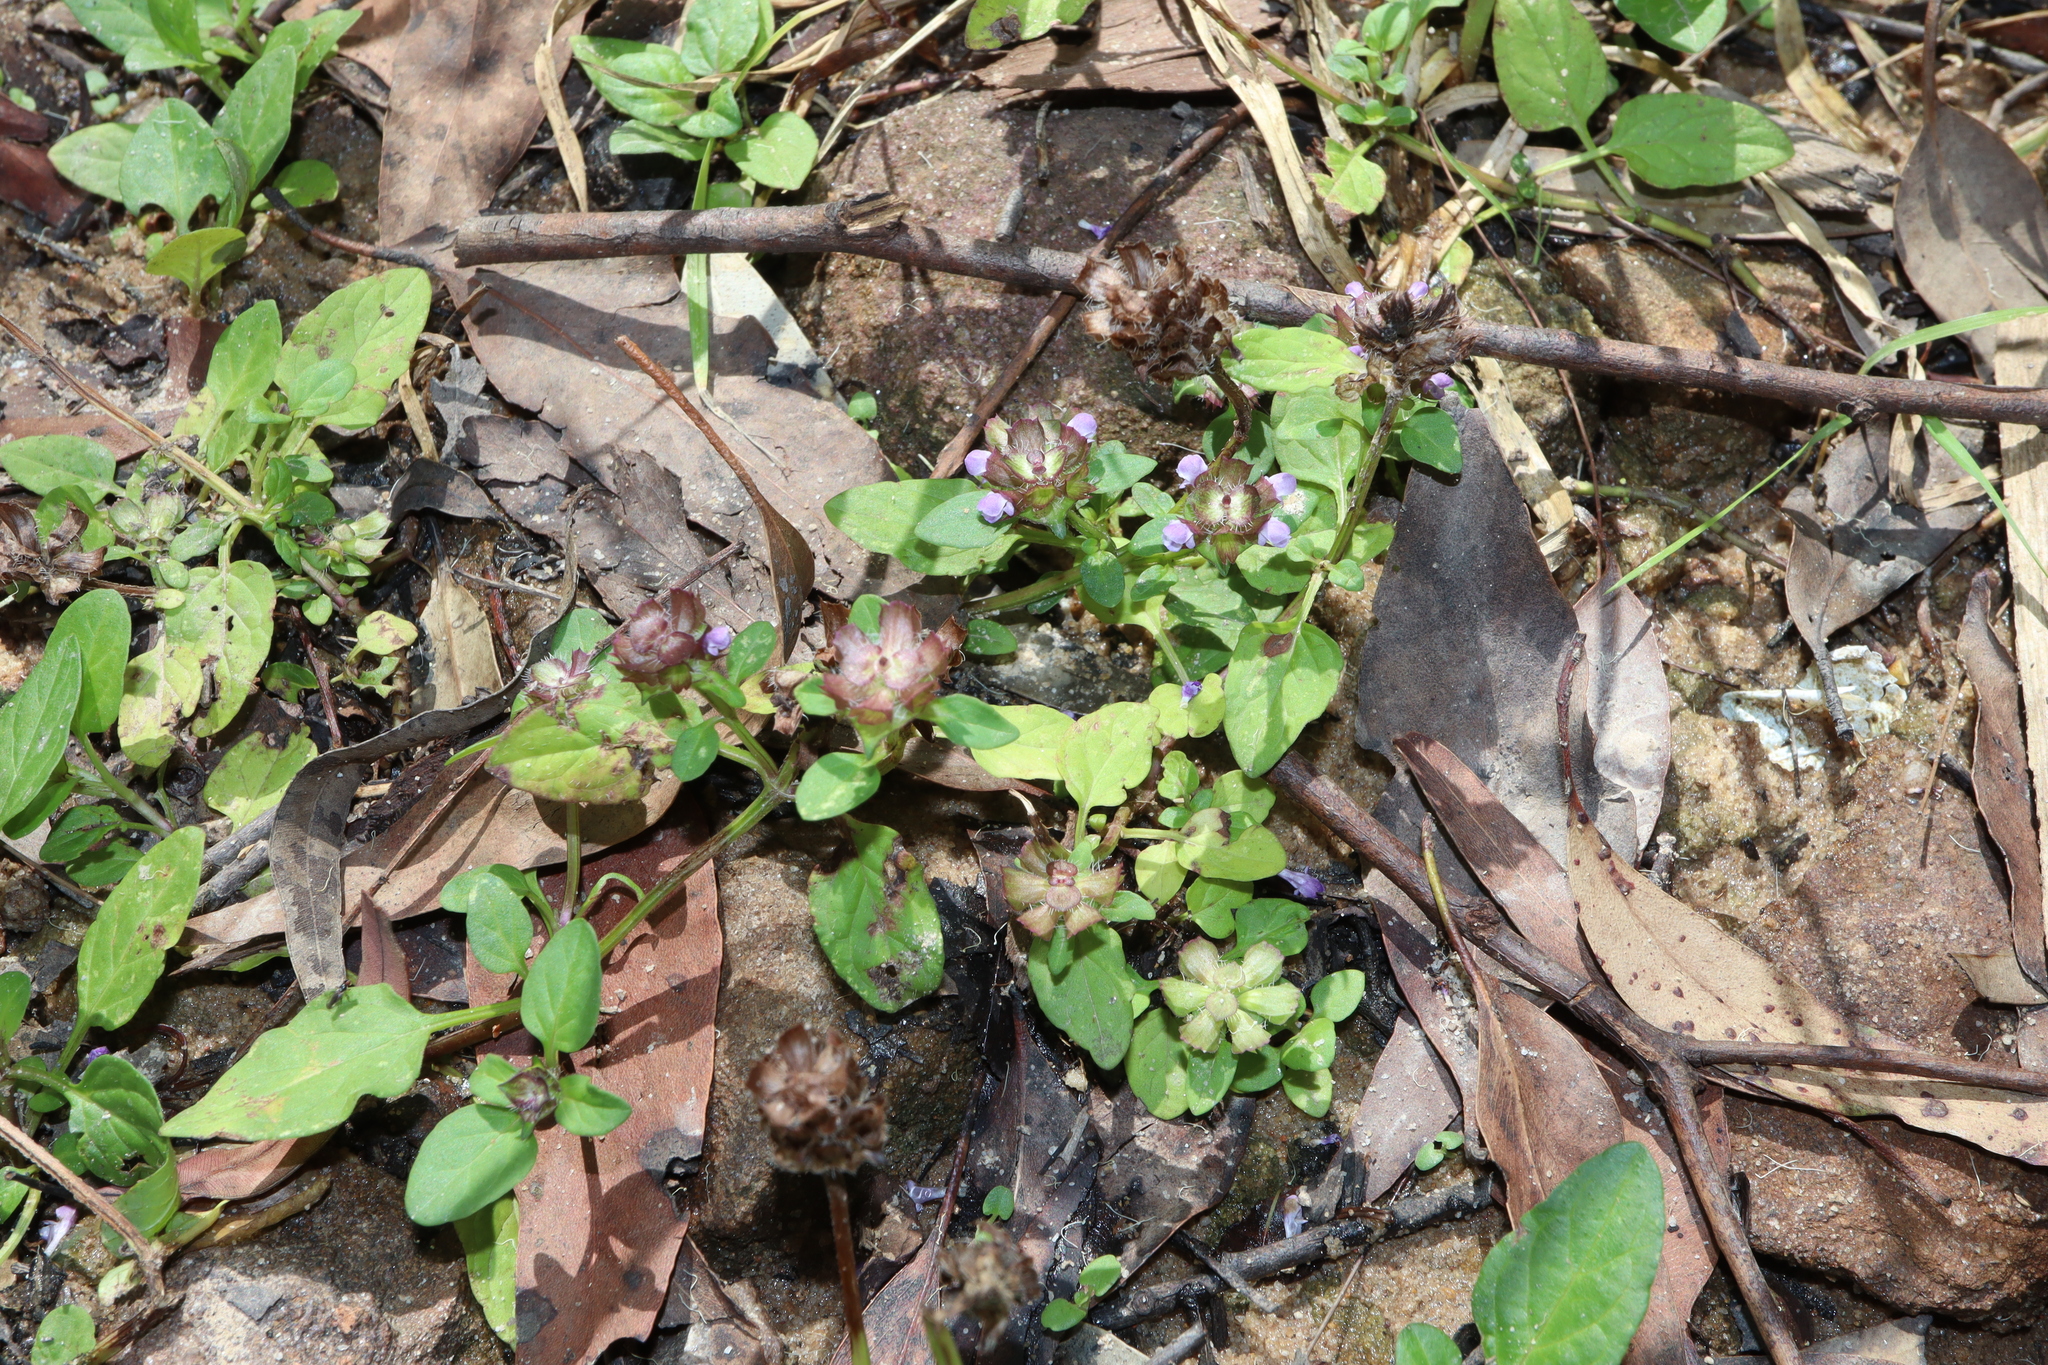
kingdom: Plantae
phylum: Tracheophyta
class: Magnoliopsida
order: Lamiales
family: Lamiaceae
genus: Prunella
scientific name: Prunella vulgaris
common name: Heal-all
